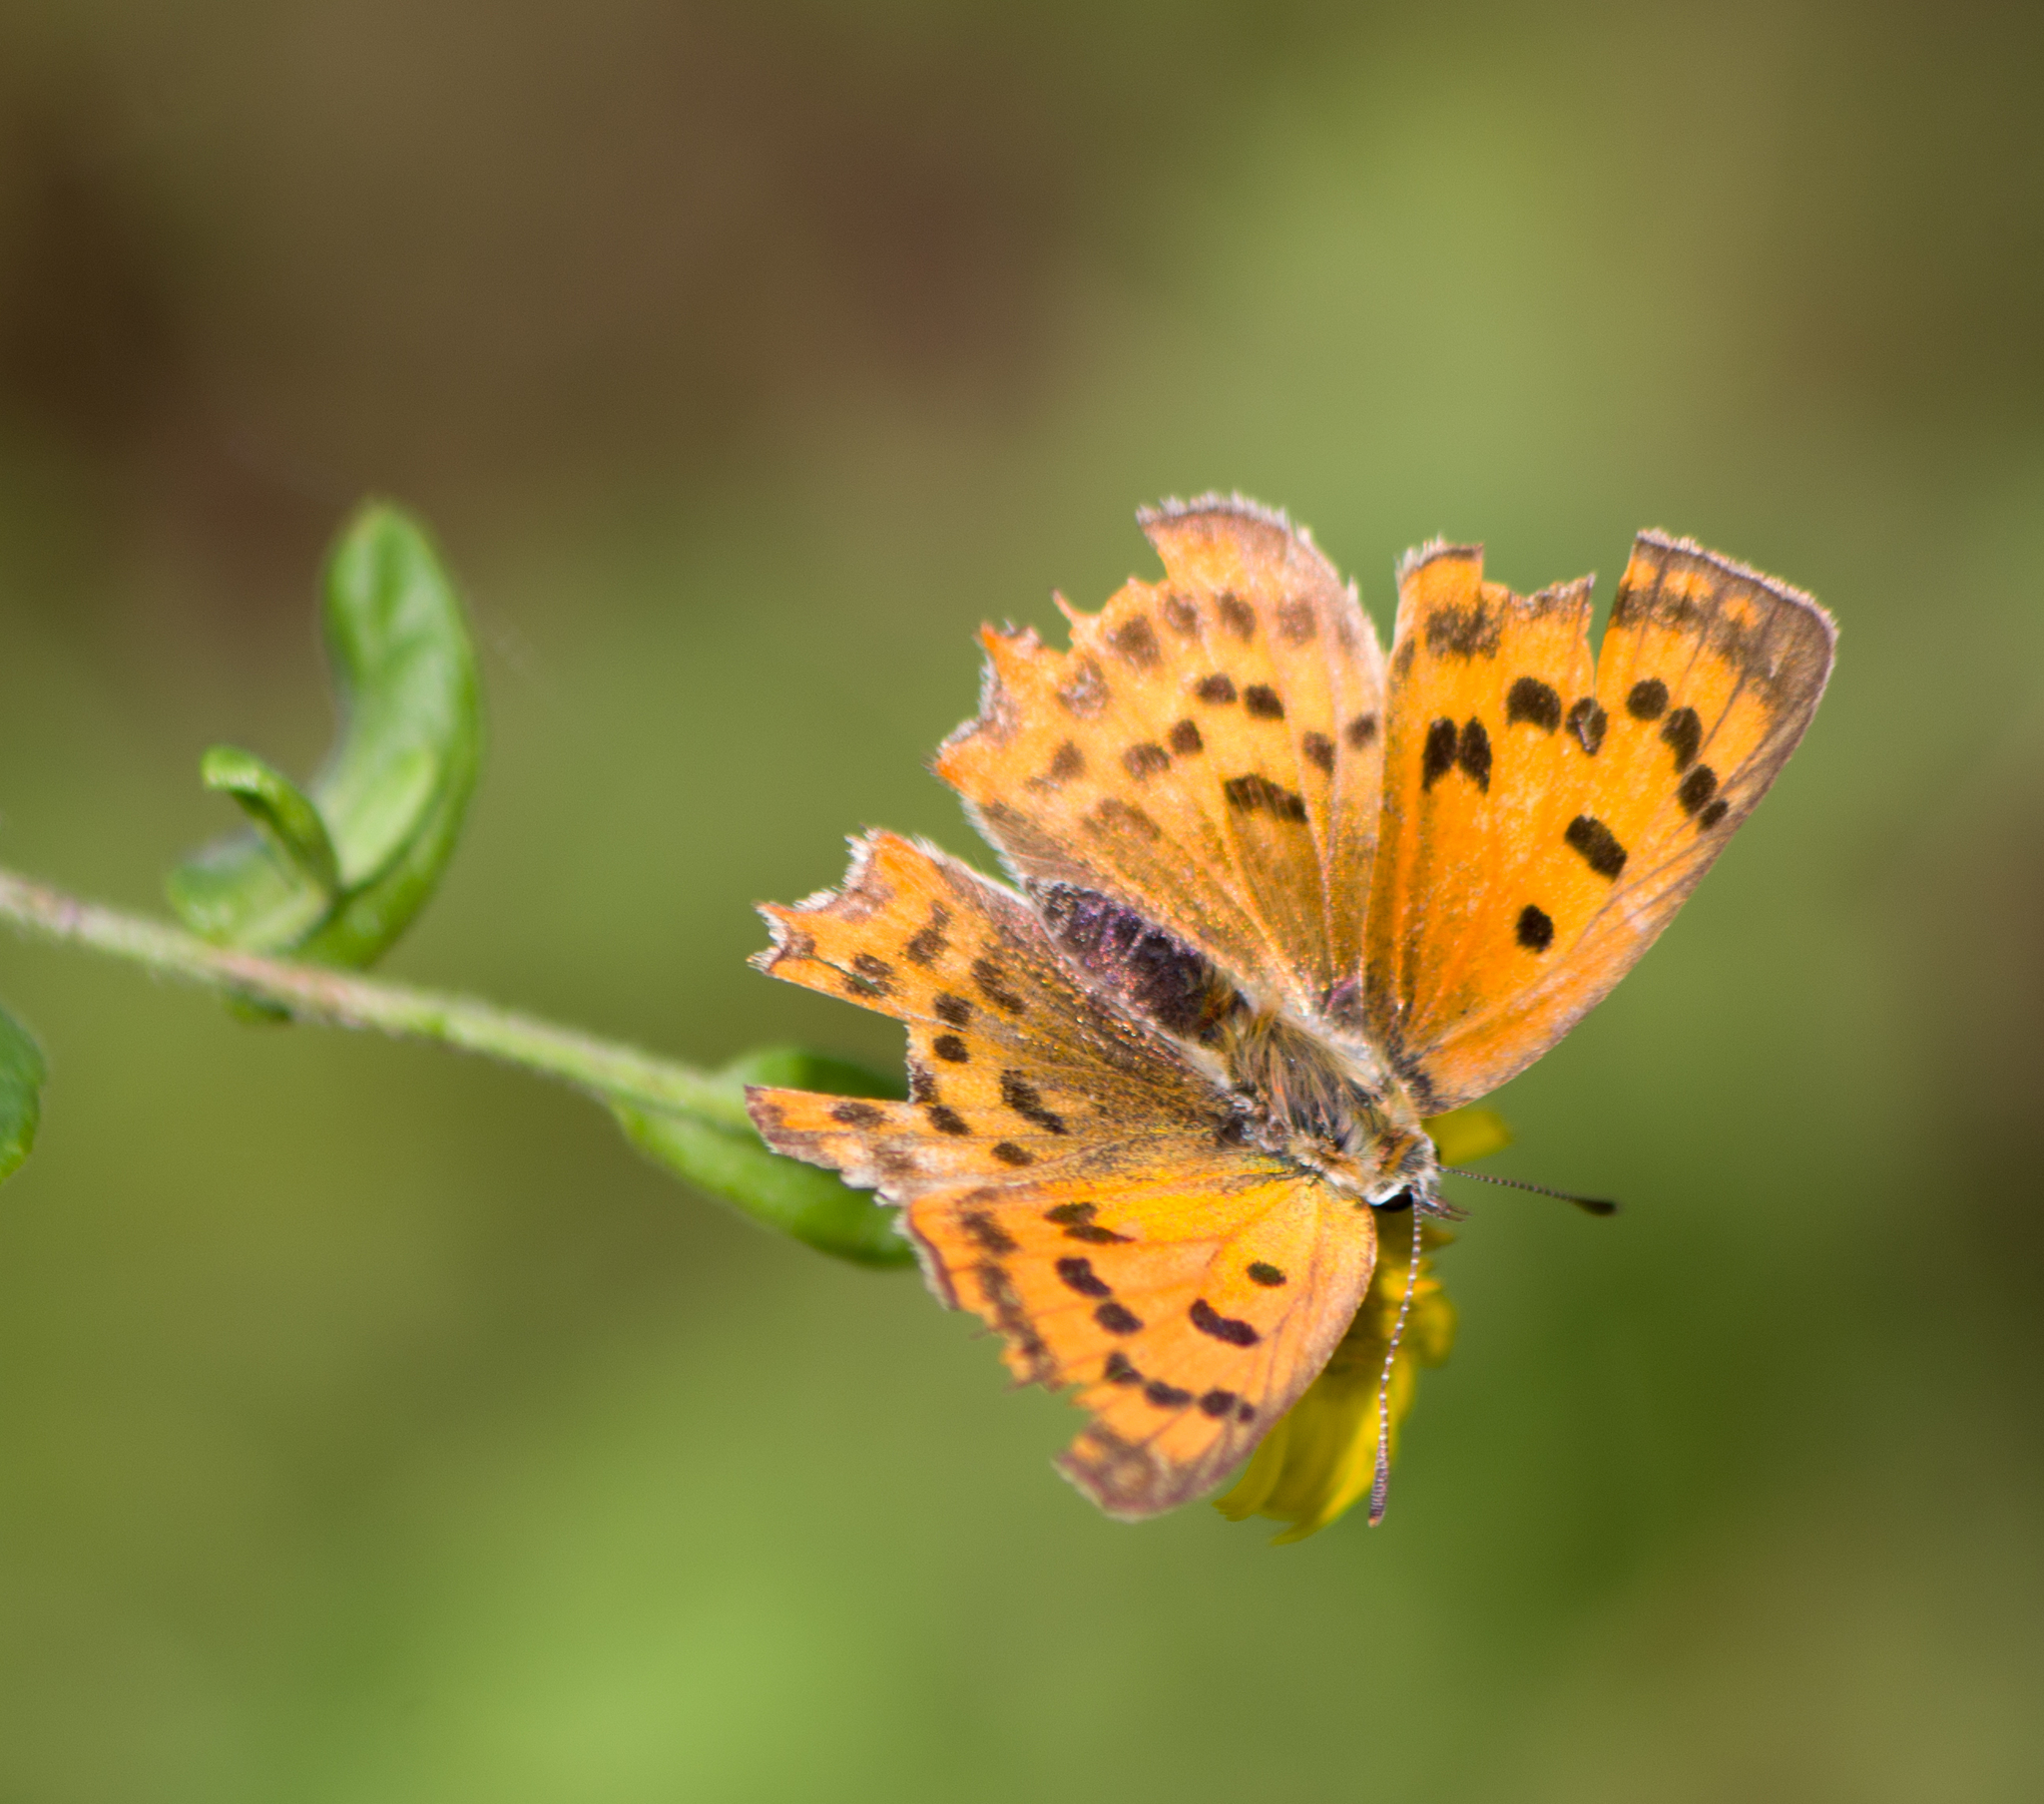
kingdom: Animalia
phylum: Arthropoda
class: Insecta
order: Lepidoptera
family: Lycaenidae
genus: Polyommatus
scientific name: Polyommatus ottomanus
